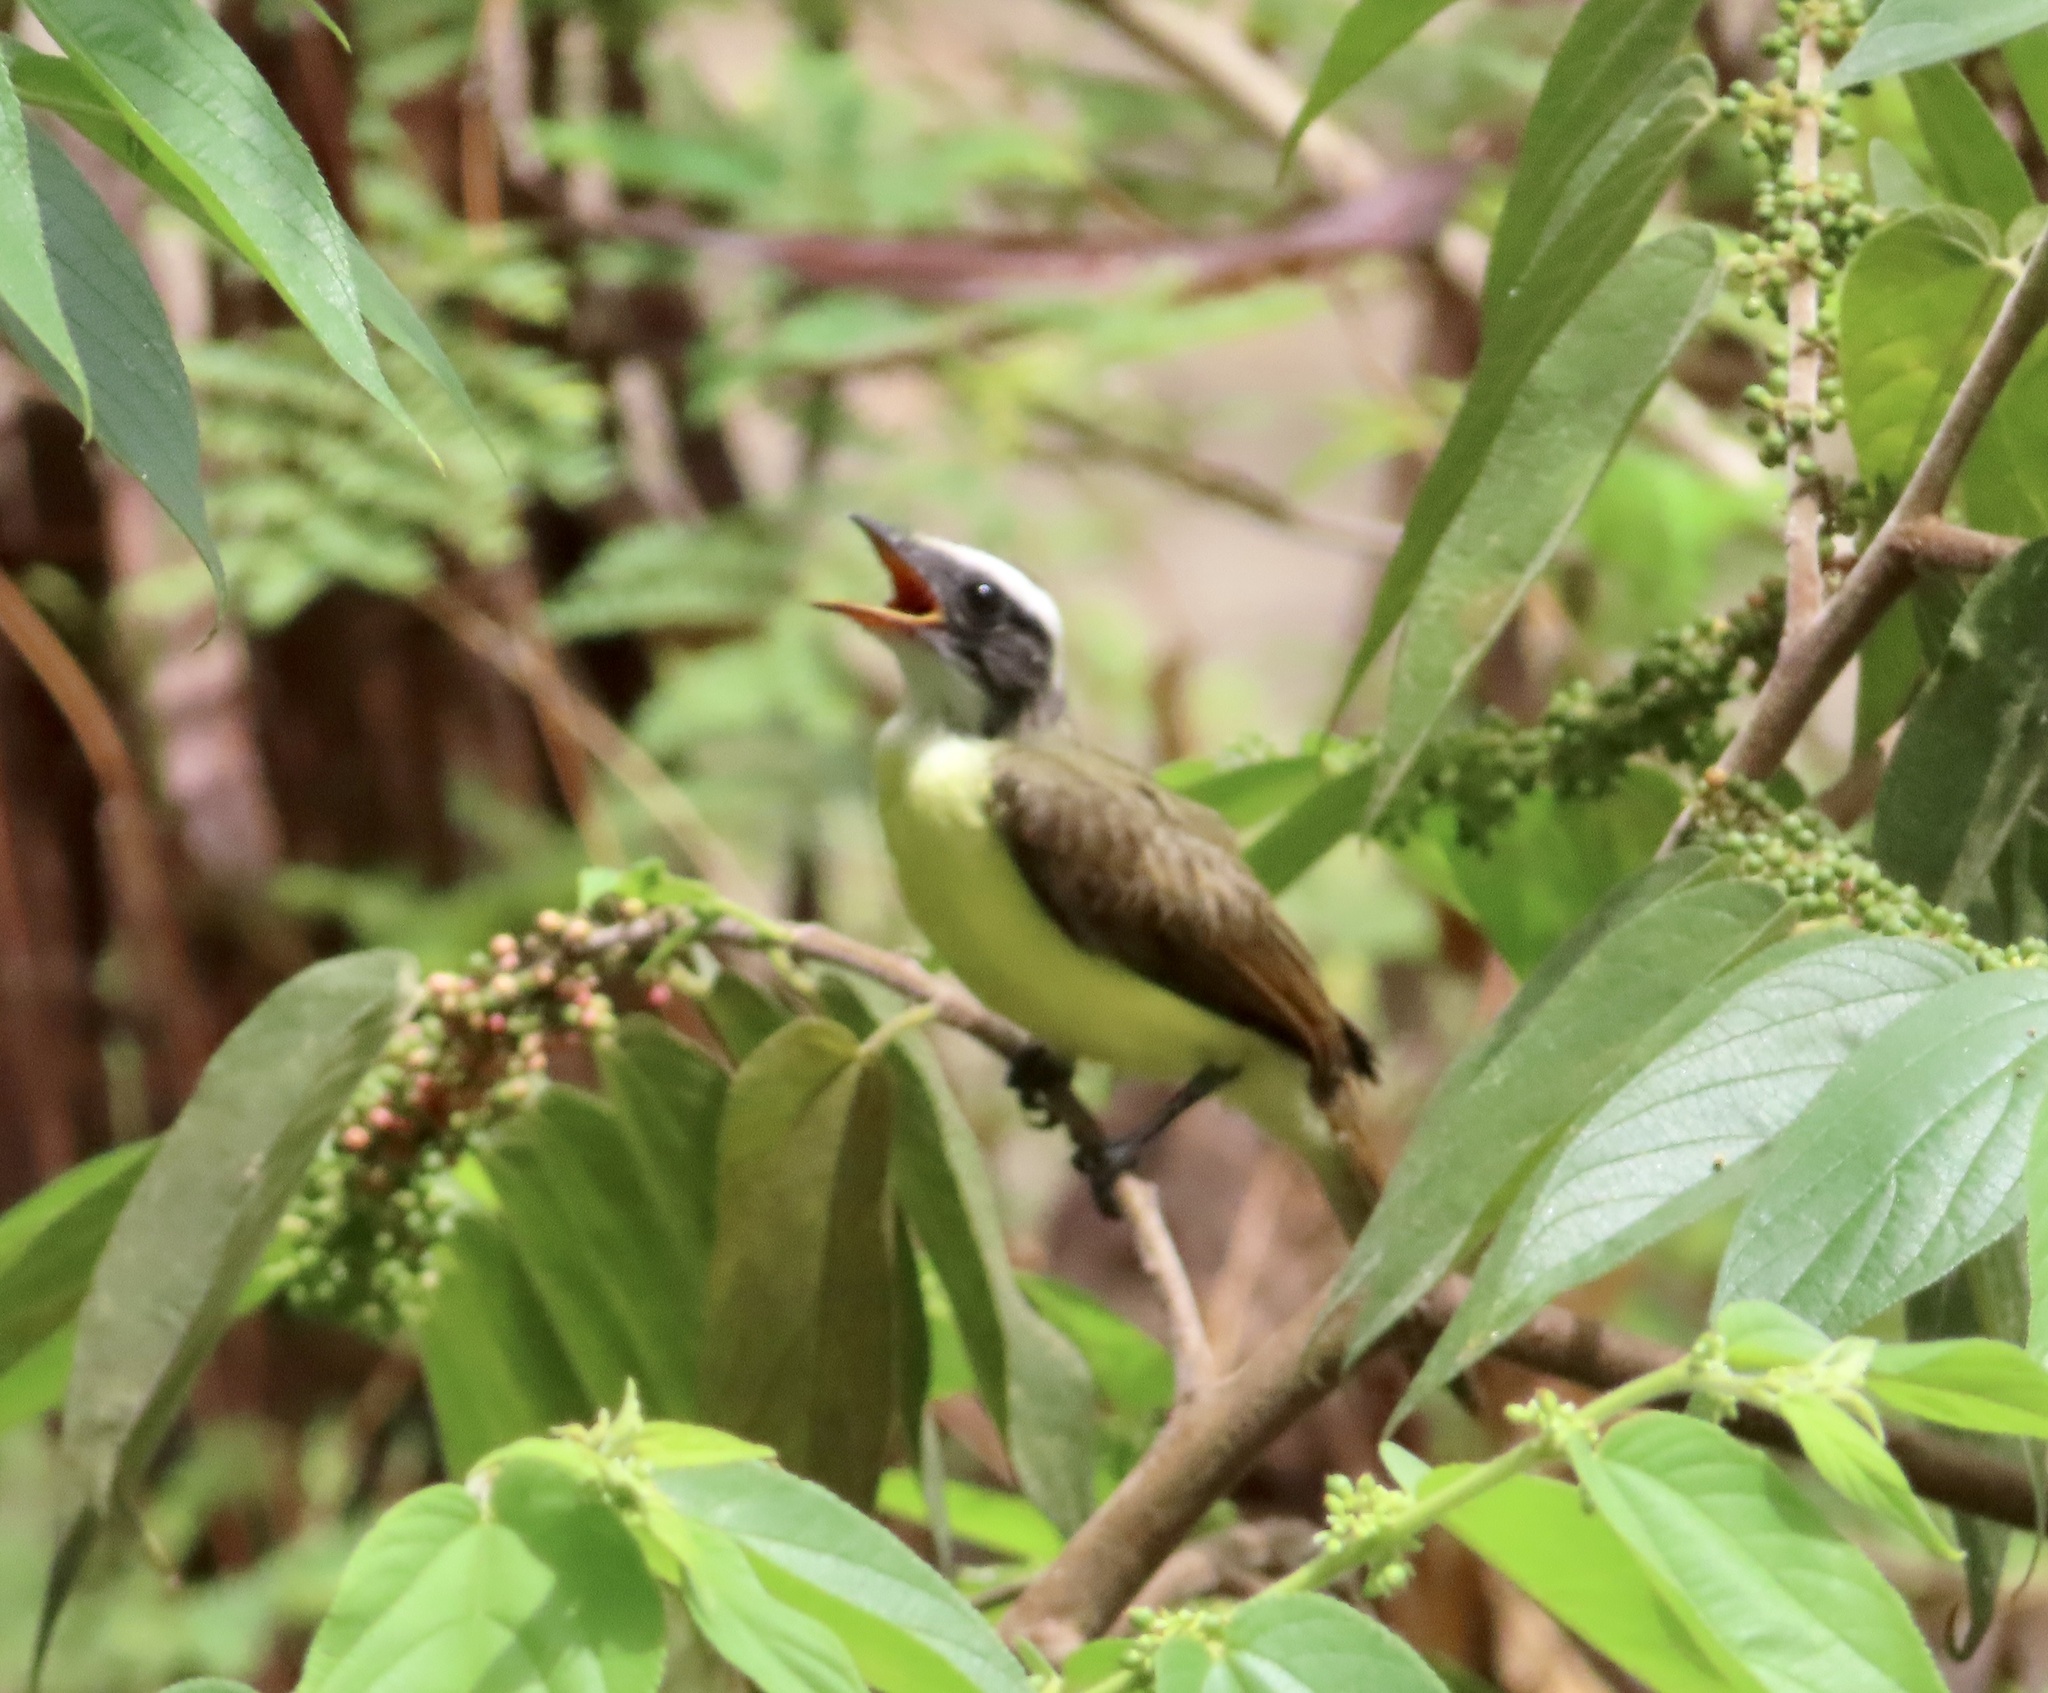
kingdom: Animalia
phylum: Chordata
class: Aves
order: Passeriformes
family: Tyrannidae
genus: Myiozetetes
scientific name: Myiozetetes similis
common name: Social flycatcher
